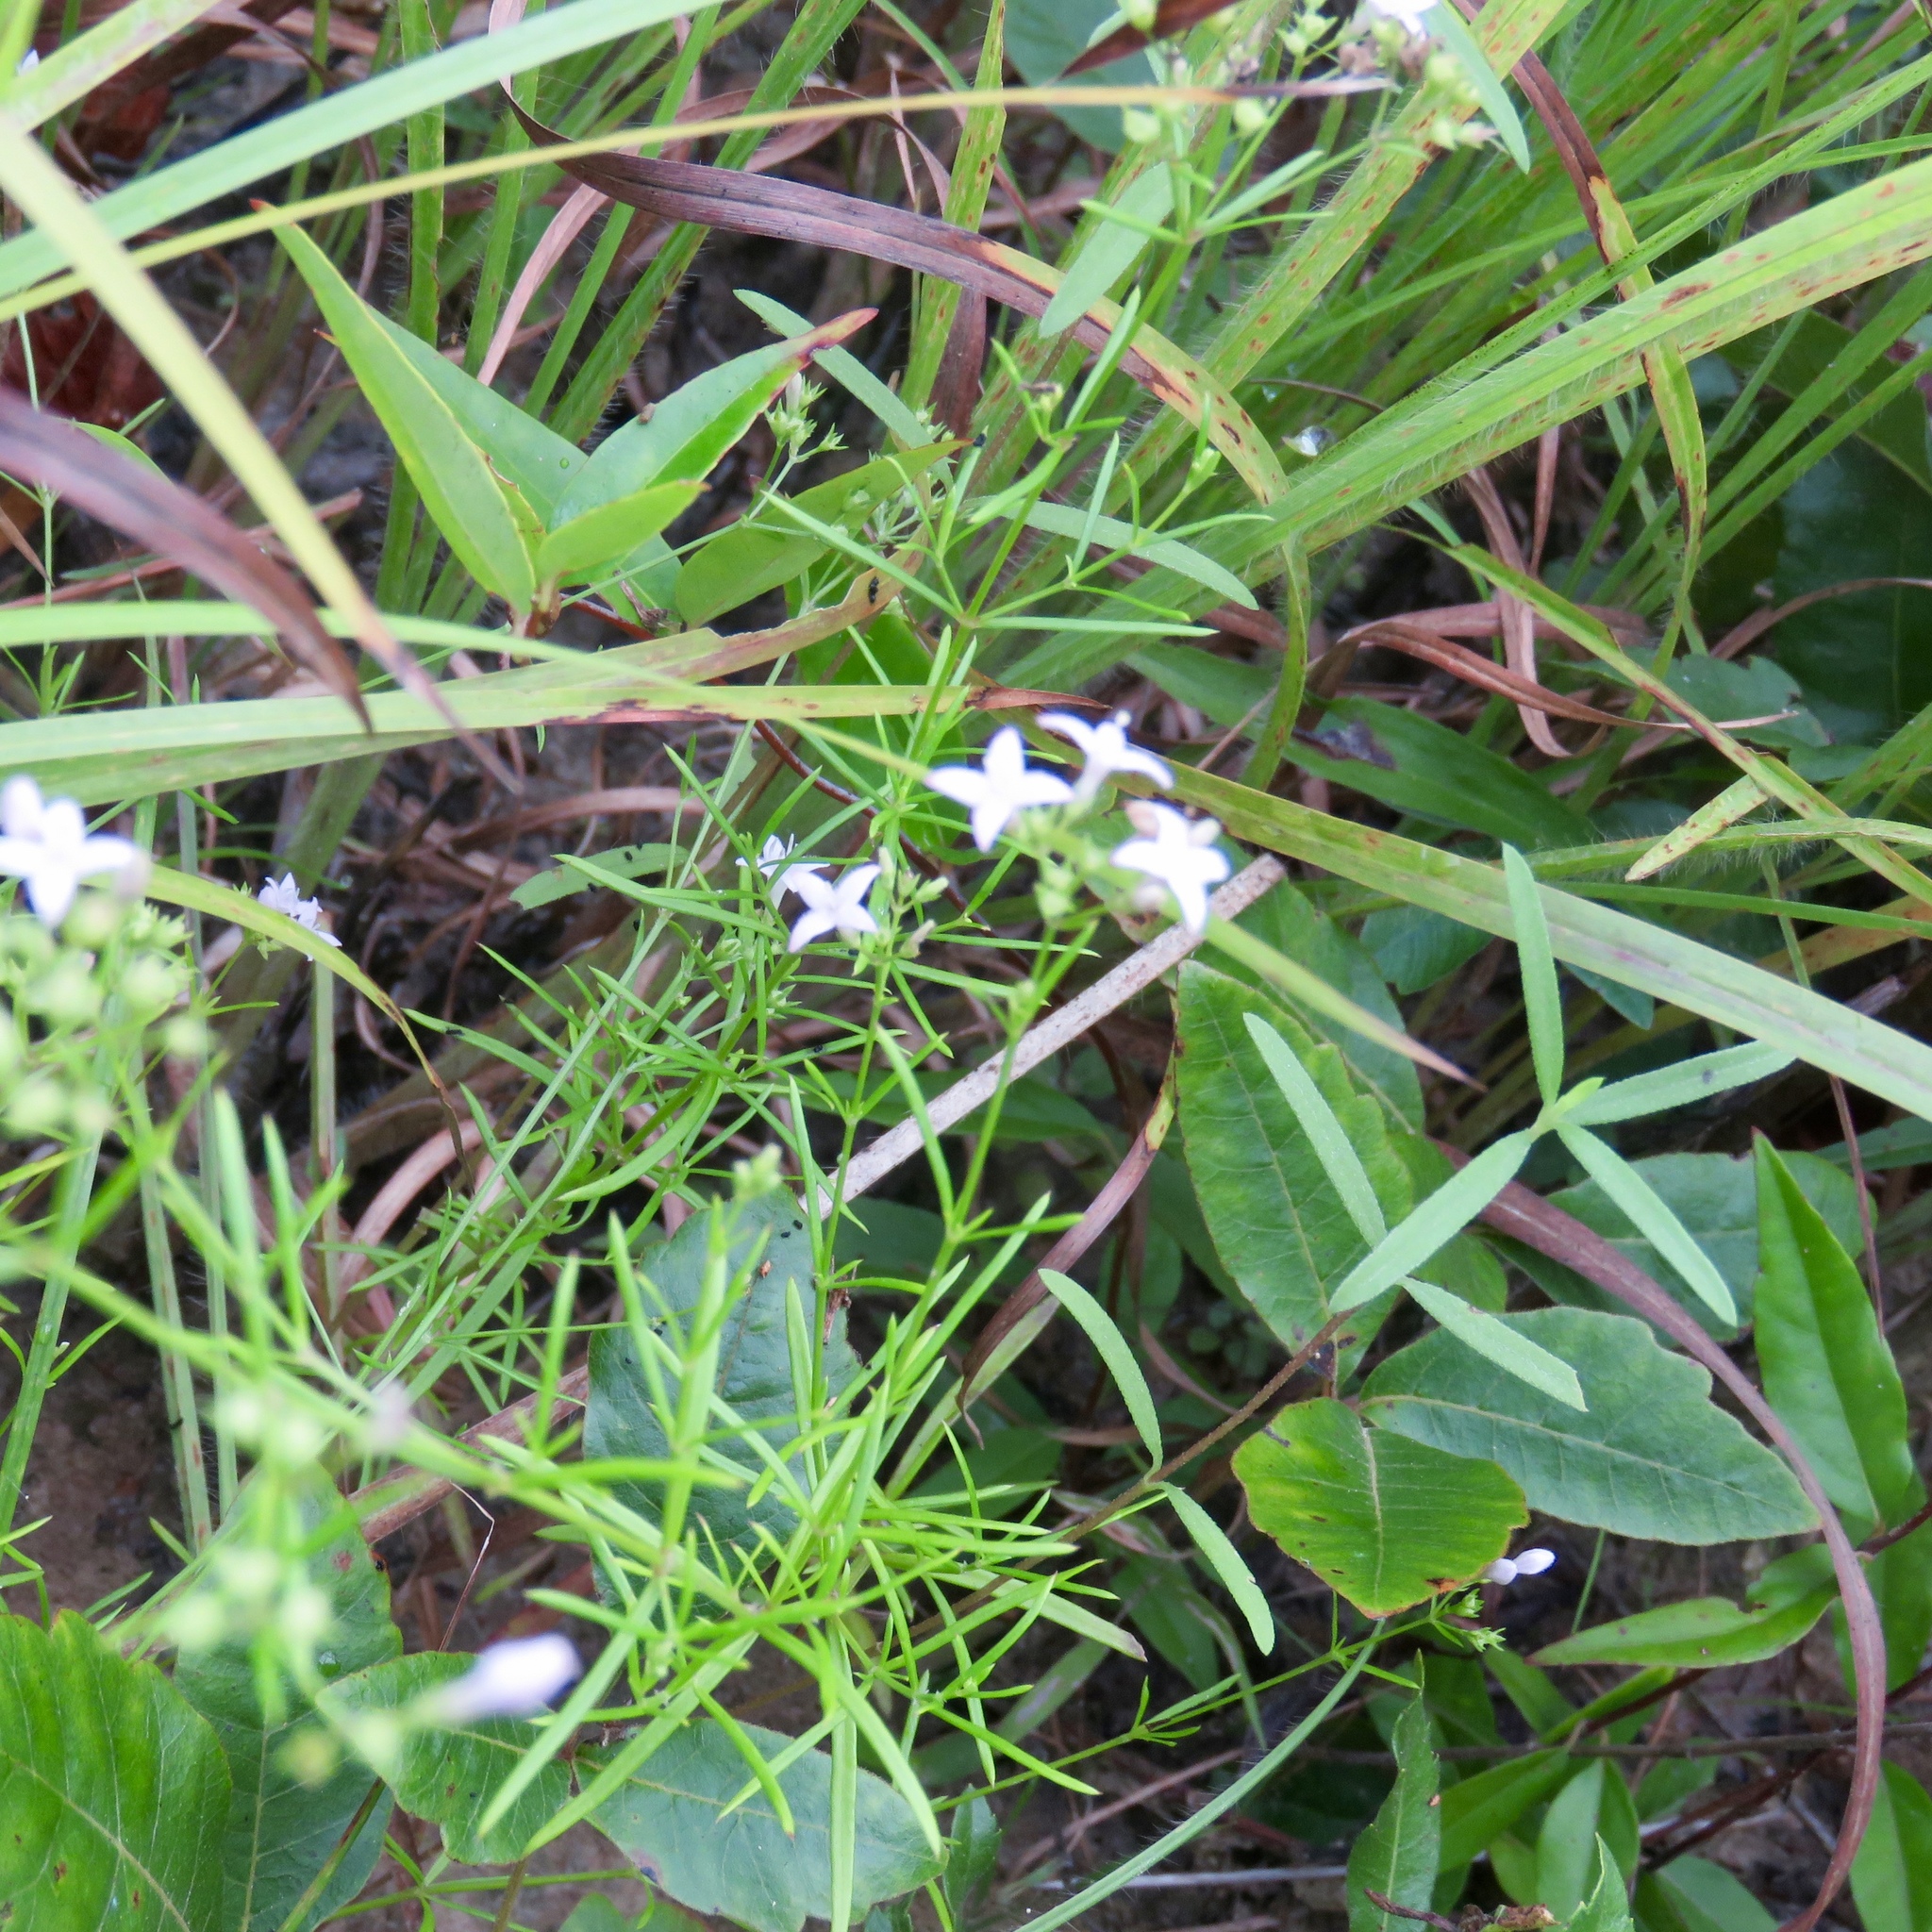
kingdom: Plantae
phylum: Tracheophyta
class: Magnoliopsida
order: Gentianales
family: Rubiaceae
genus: Stenaria
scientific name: Stenaria nigricans
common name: Diamondflowers
